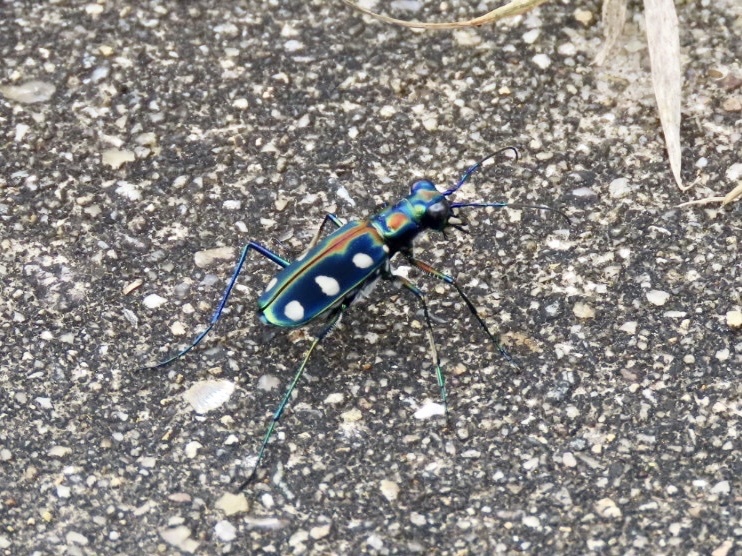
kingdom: Animalia
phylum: Arthropoda
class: Insecta
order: Coleoptera
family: Carabidae
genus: Cicindela
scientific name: Cicindela aurulenta
